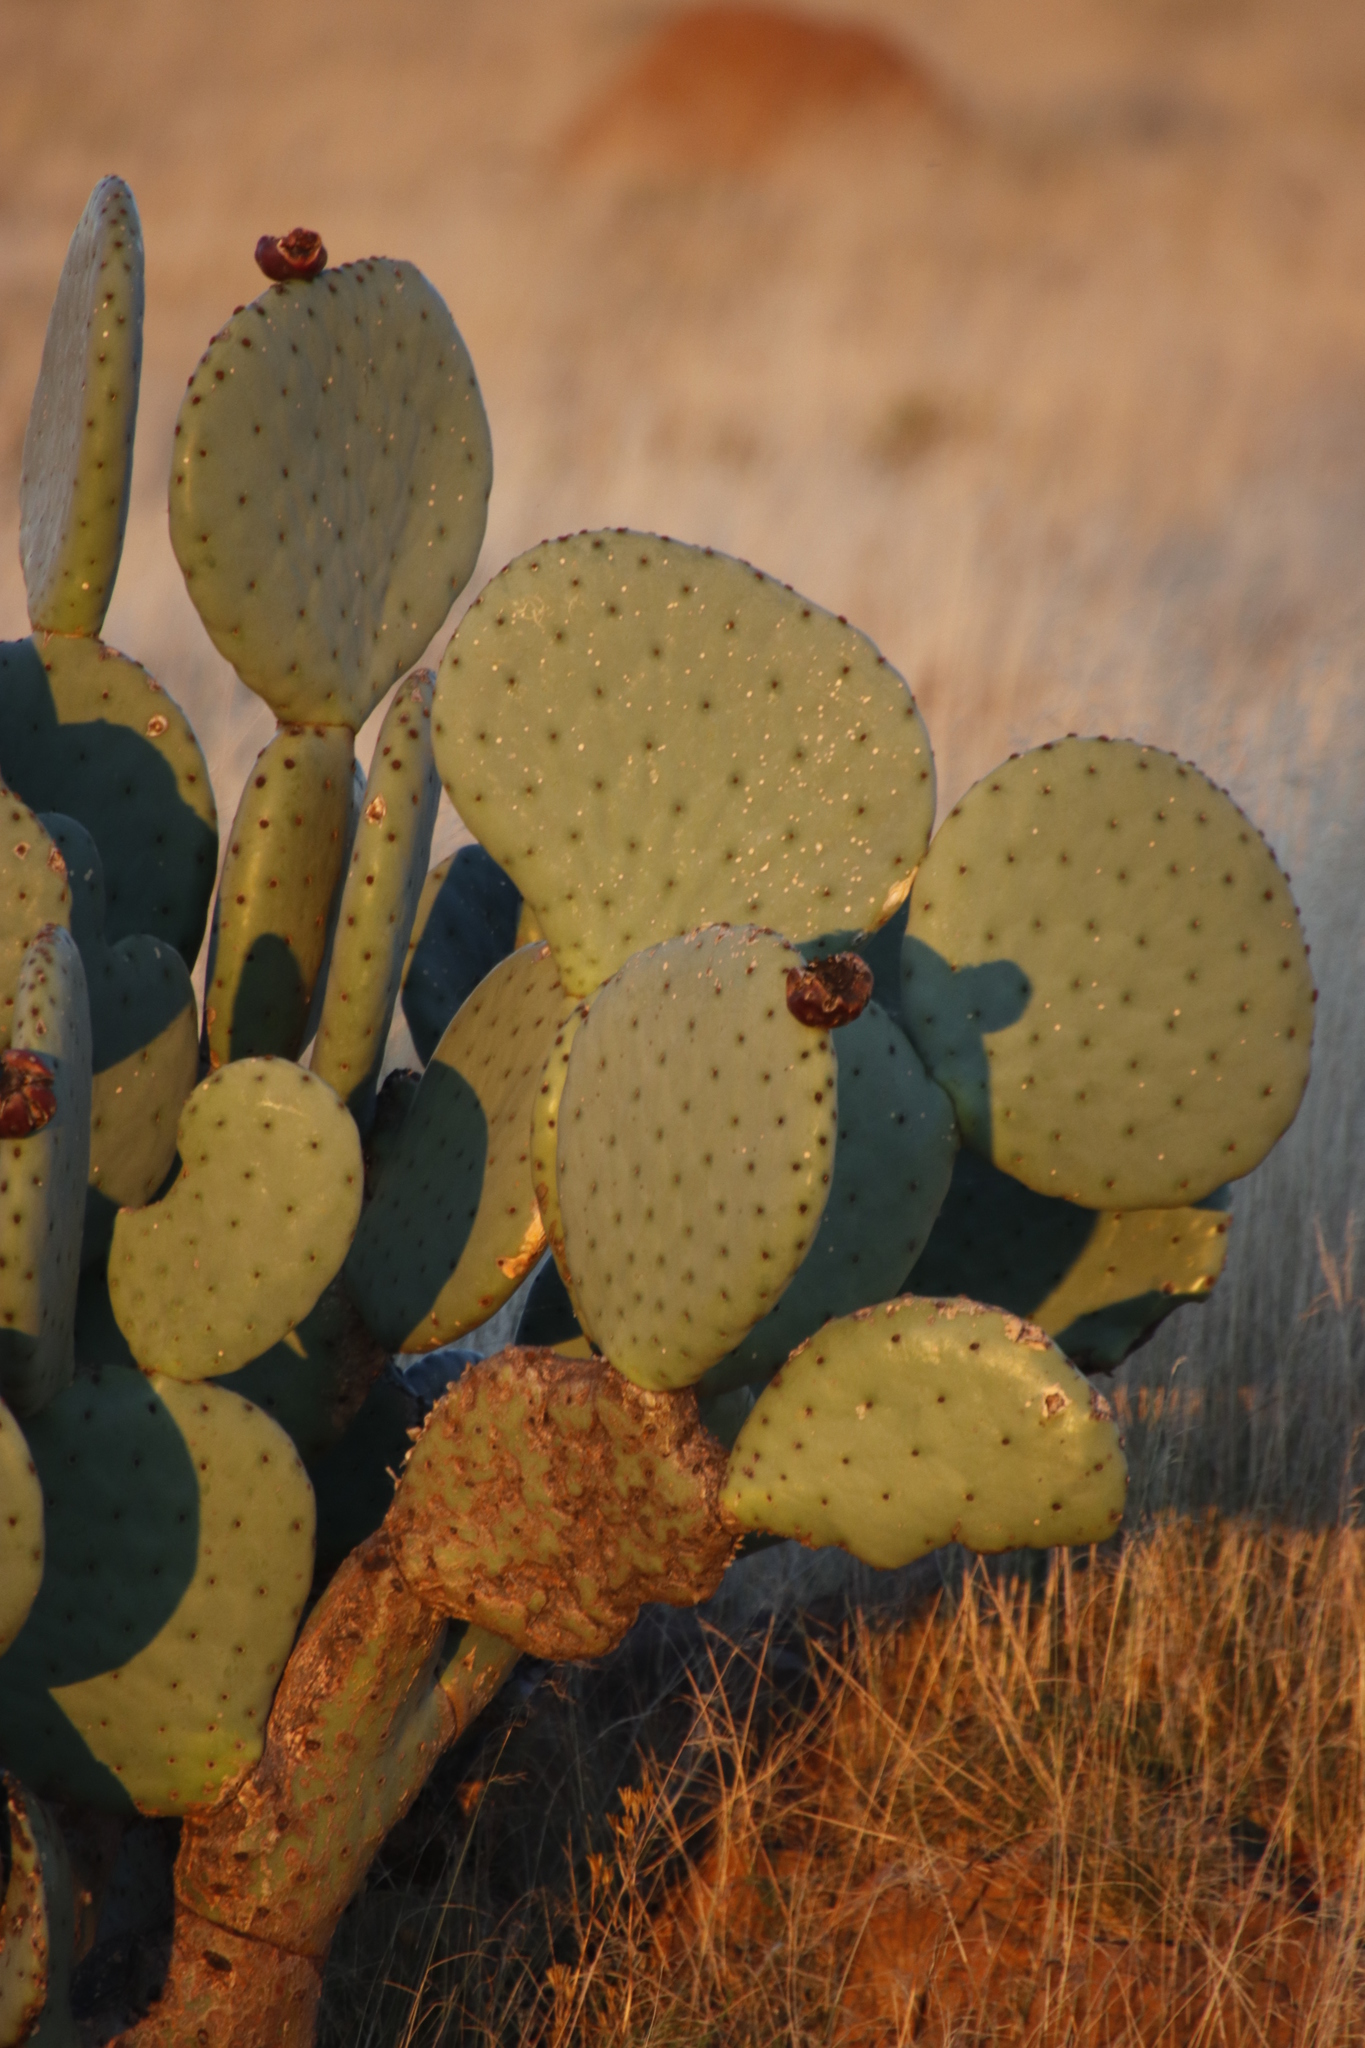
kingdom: Plantae
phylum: Tracheophyta
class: Magnoliopsida
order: Caryophyllales
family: Cactaceae
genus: Opuntia
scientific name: Opuntia robusta
